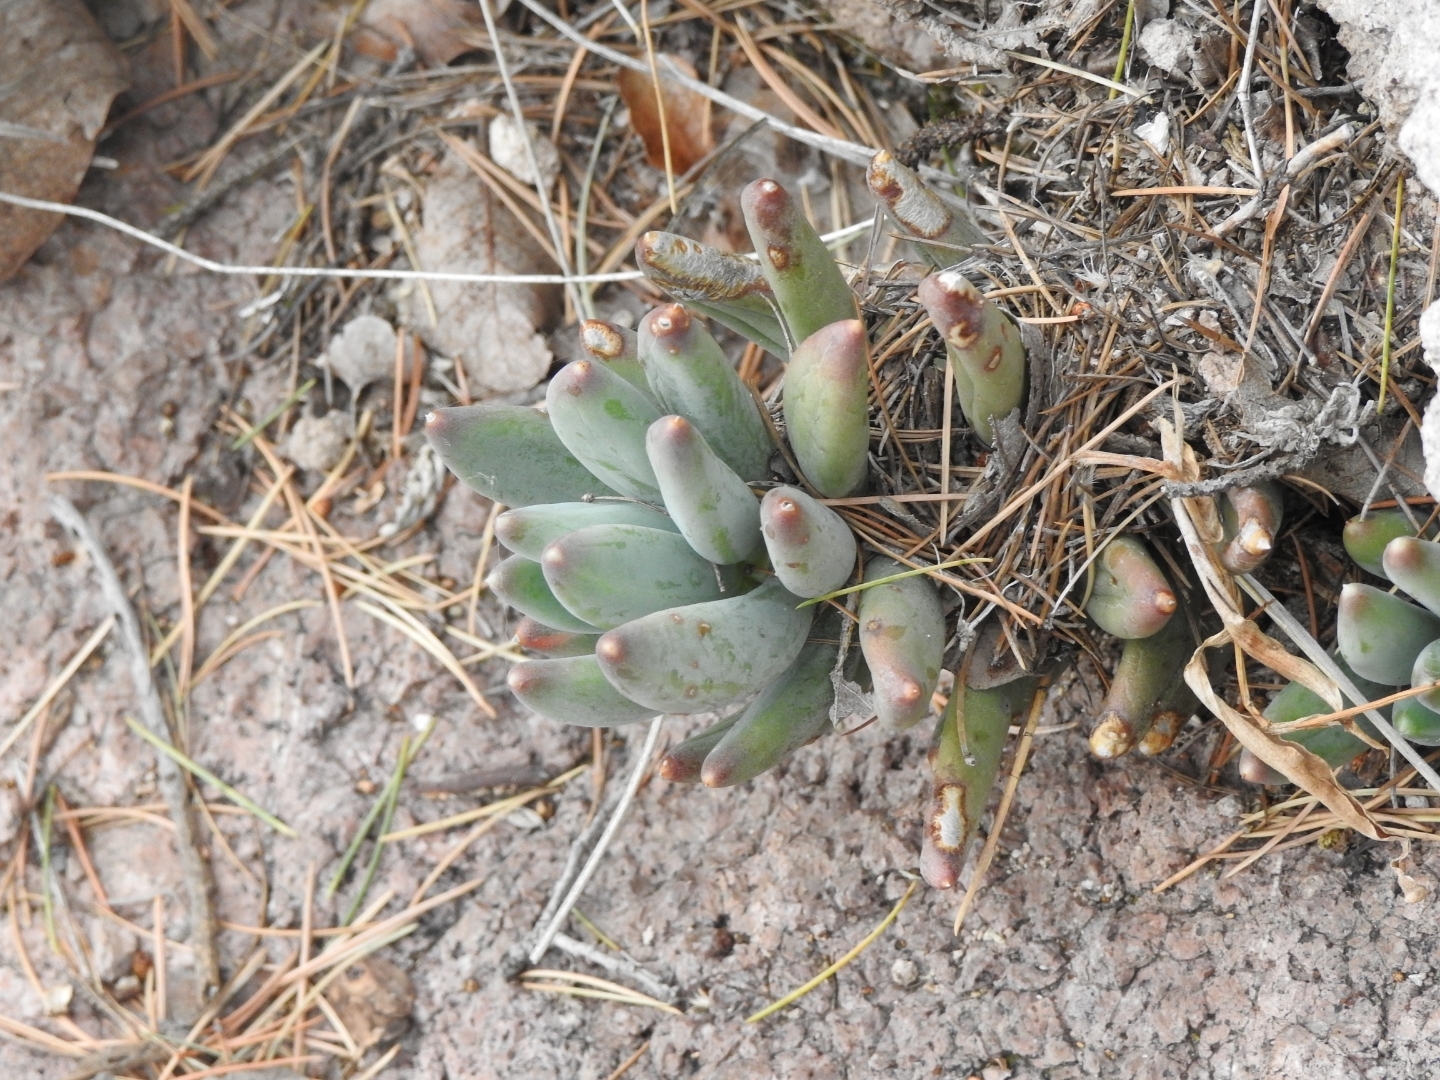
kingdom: Plantae
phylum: Tracheophyta
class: Magnoliopsida
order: Saxifragales
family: Crassulaceae
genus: Pachyphytum
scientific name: Pachyphytum hookeri
